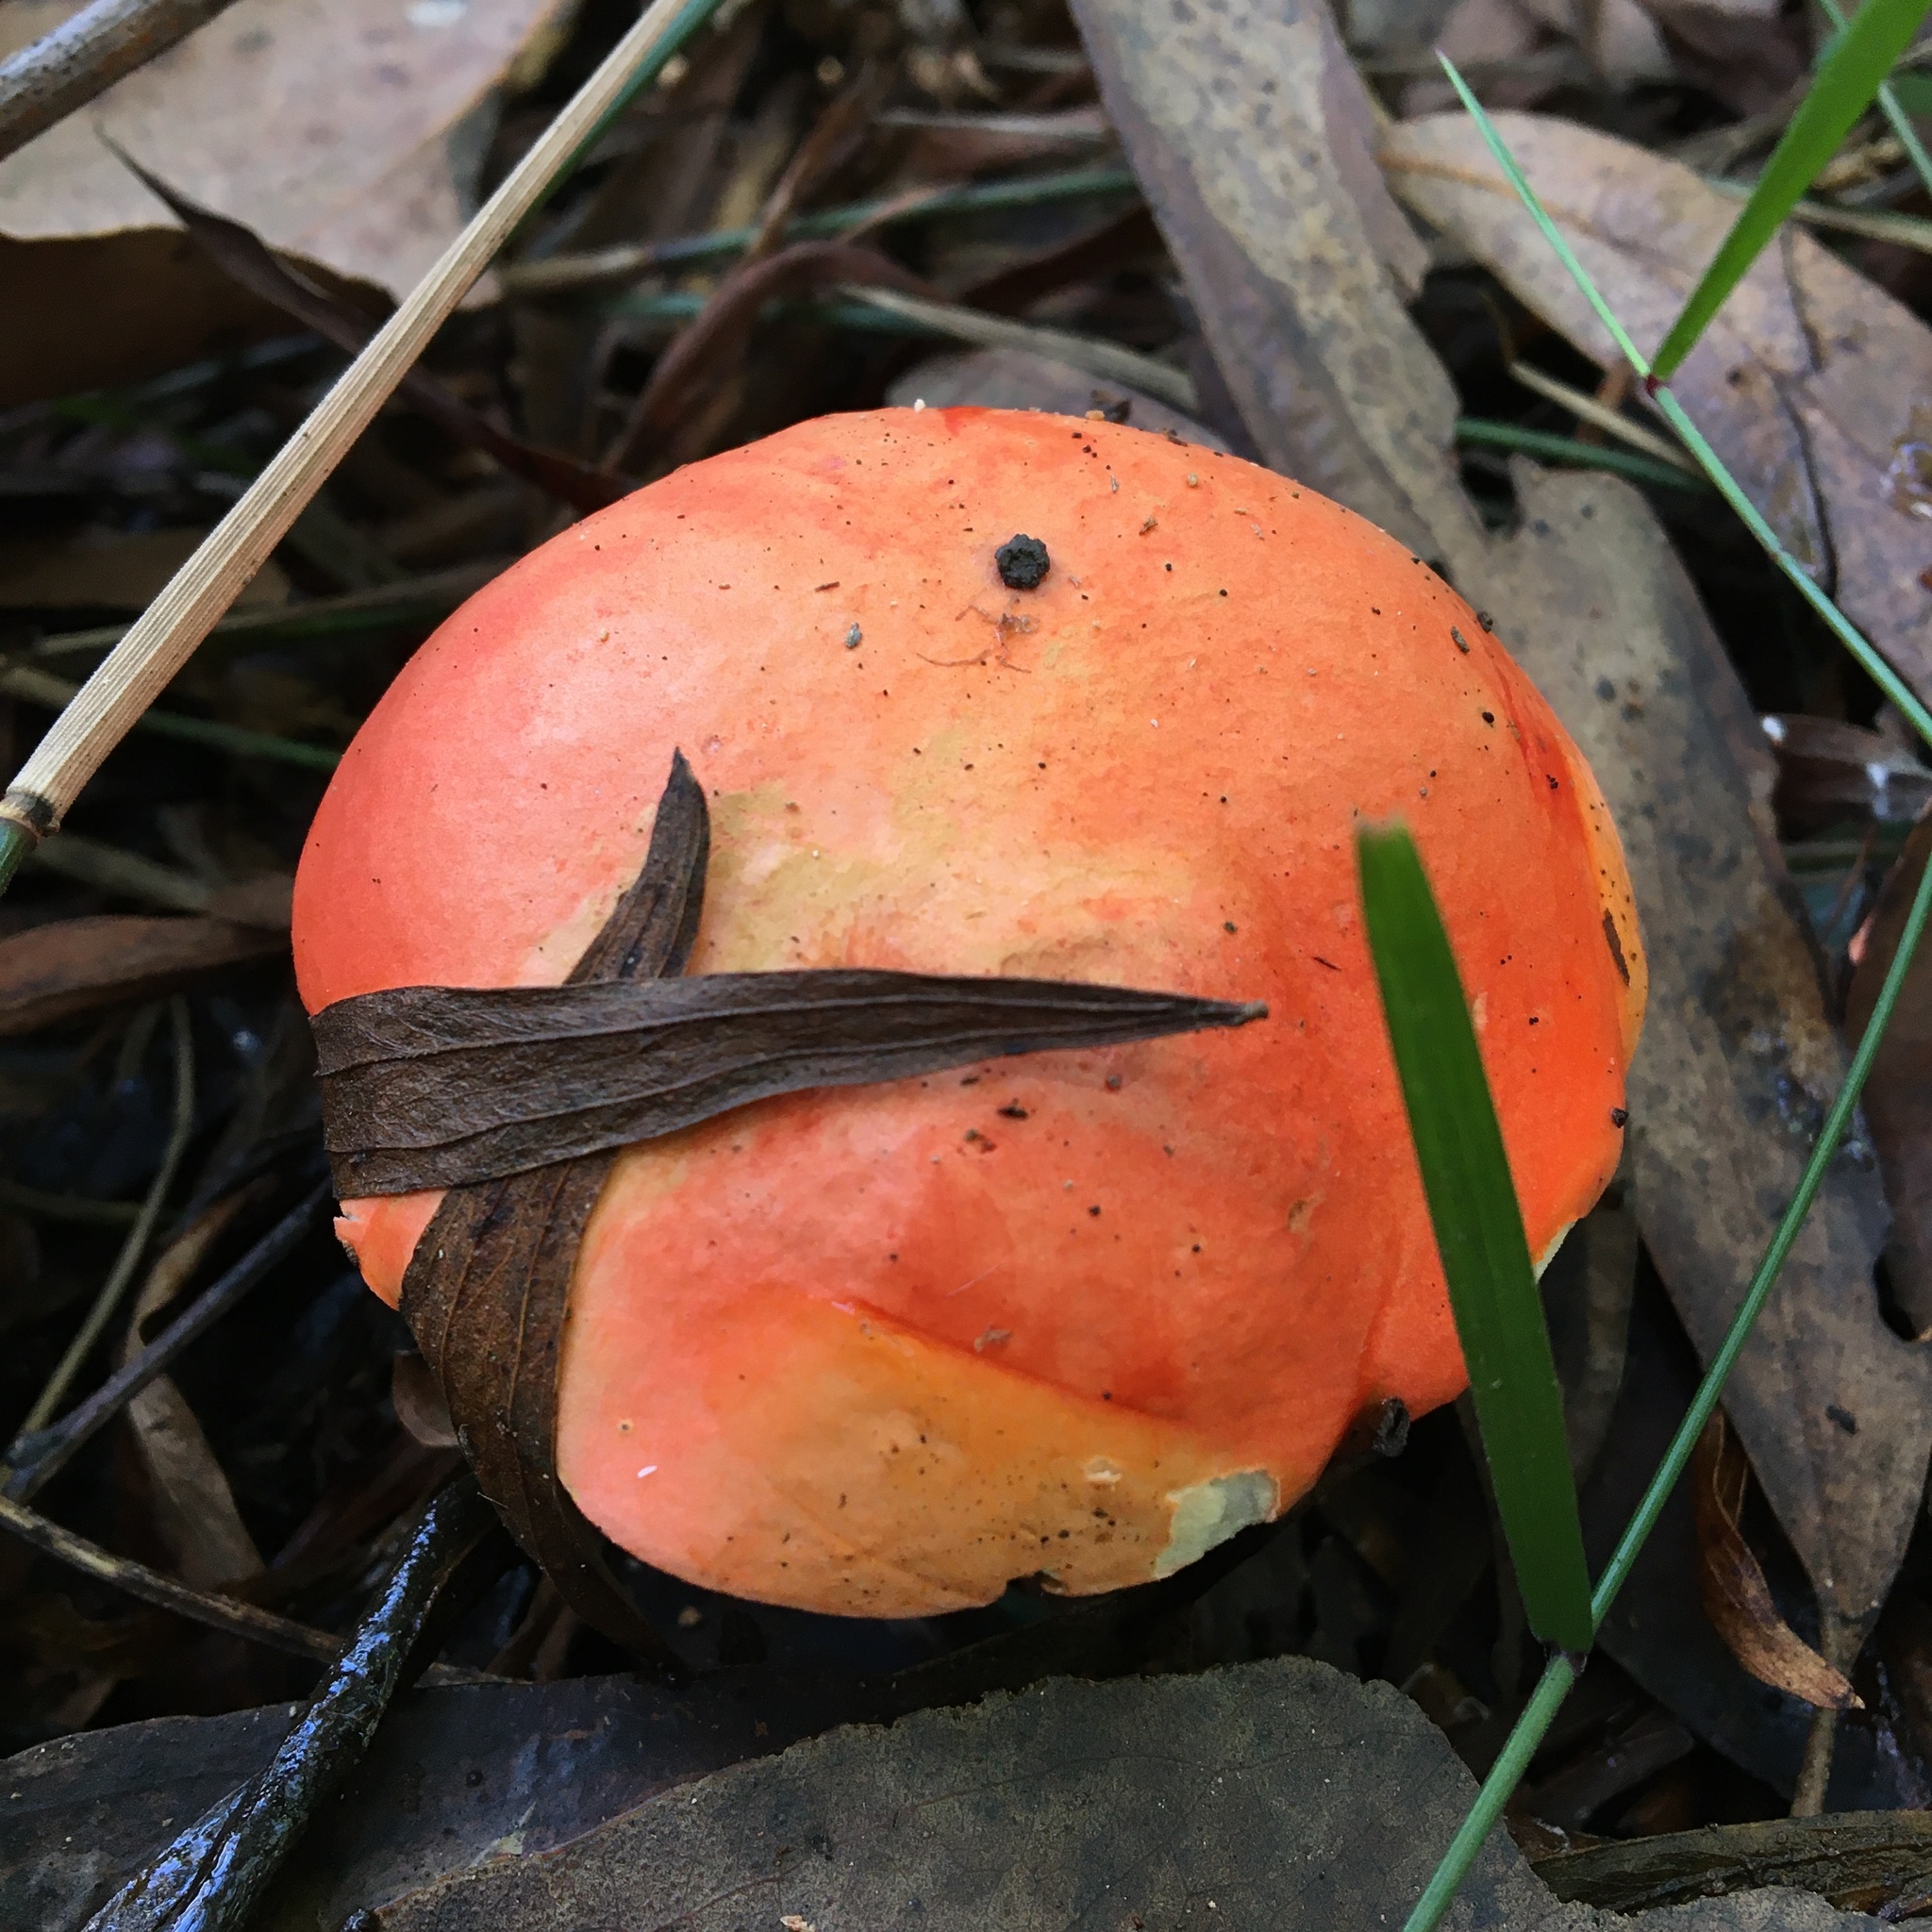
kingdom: Fungi
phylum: Basidiomycota
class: Agaricomycetes
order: Boletales
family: Boletaceae
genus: Tylopilus
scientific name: Tylopilus balloui
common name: Burnt-orange bolete
